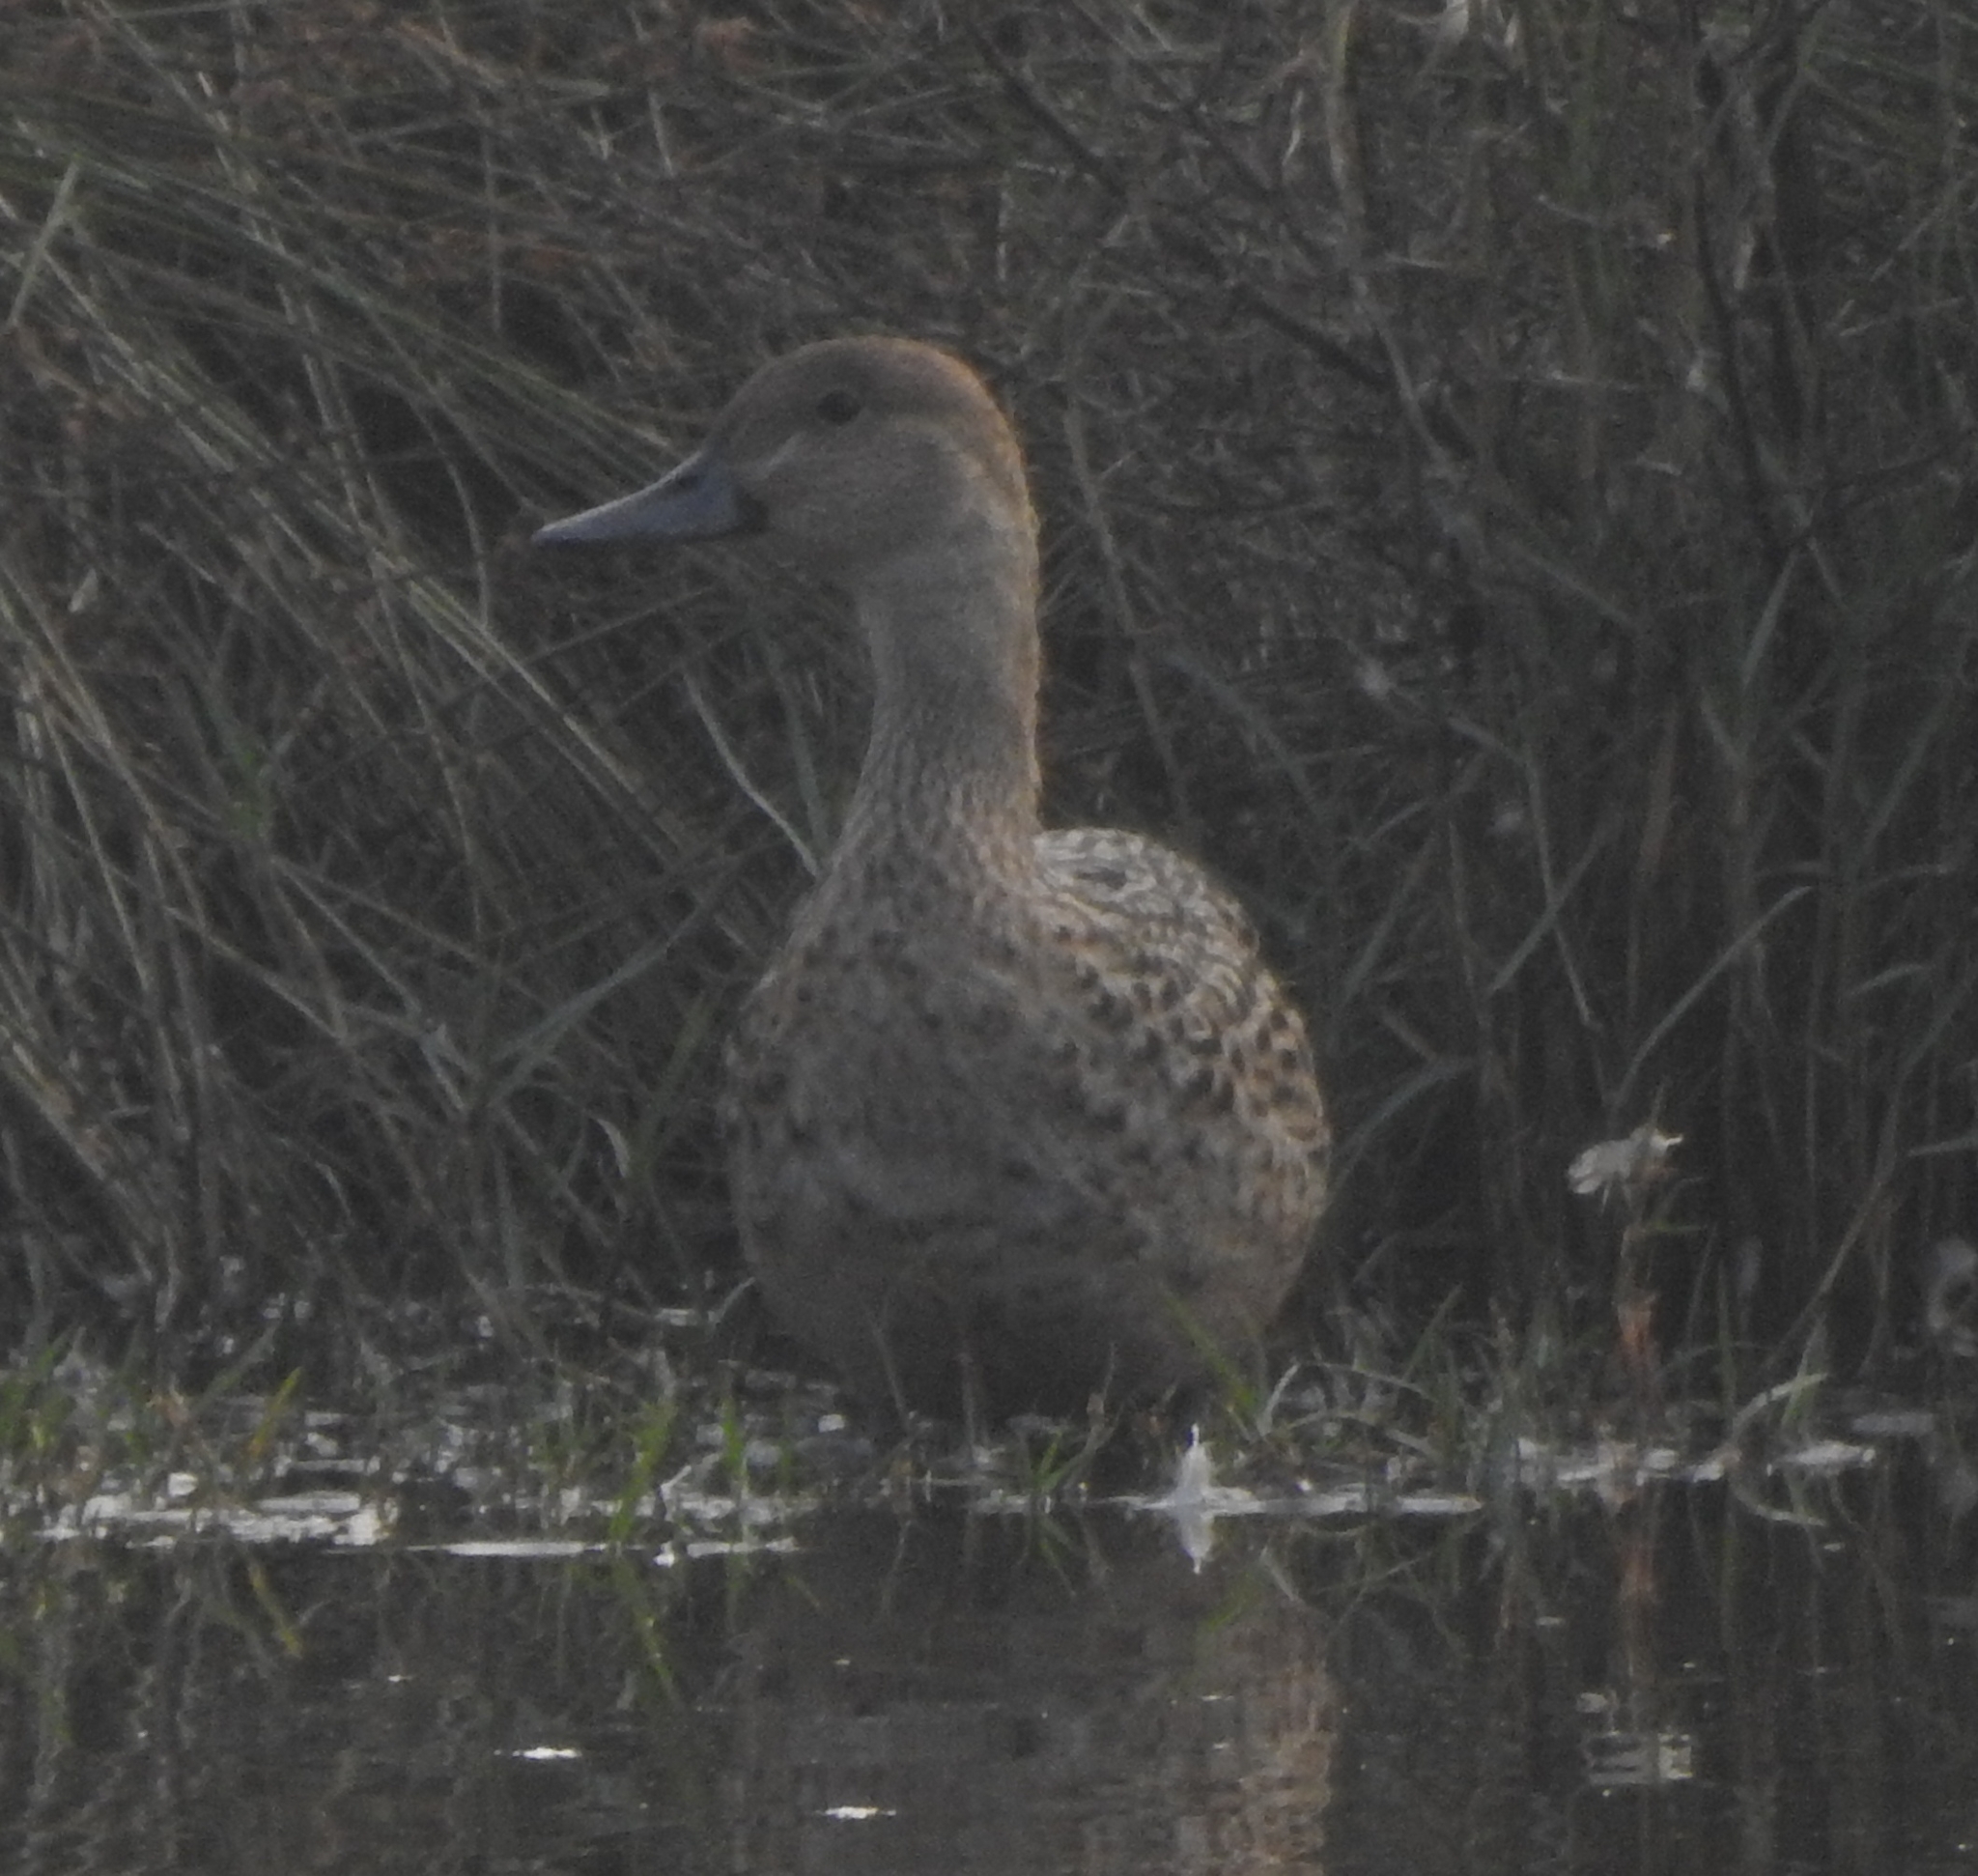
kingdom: Animalia
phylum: Chordata
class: Aves
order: Anseriformes
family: Anatidae
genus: Anas
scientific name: Anas acuta
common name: Northern pintail
